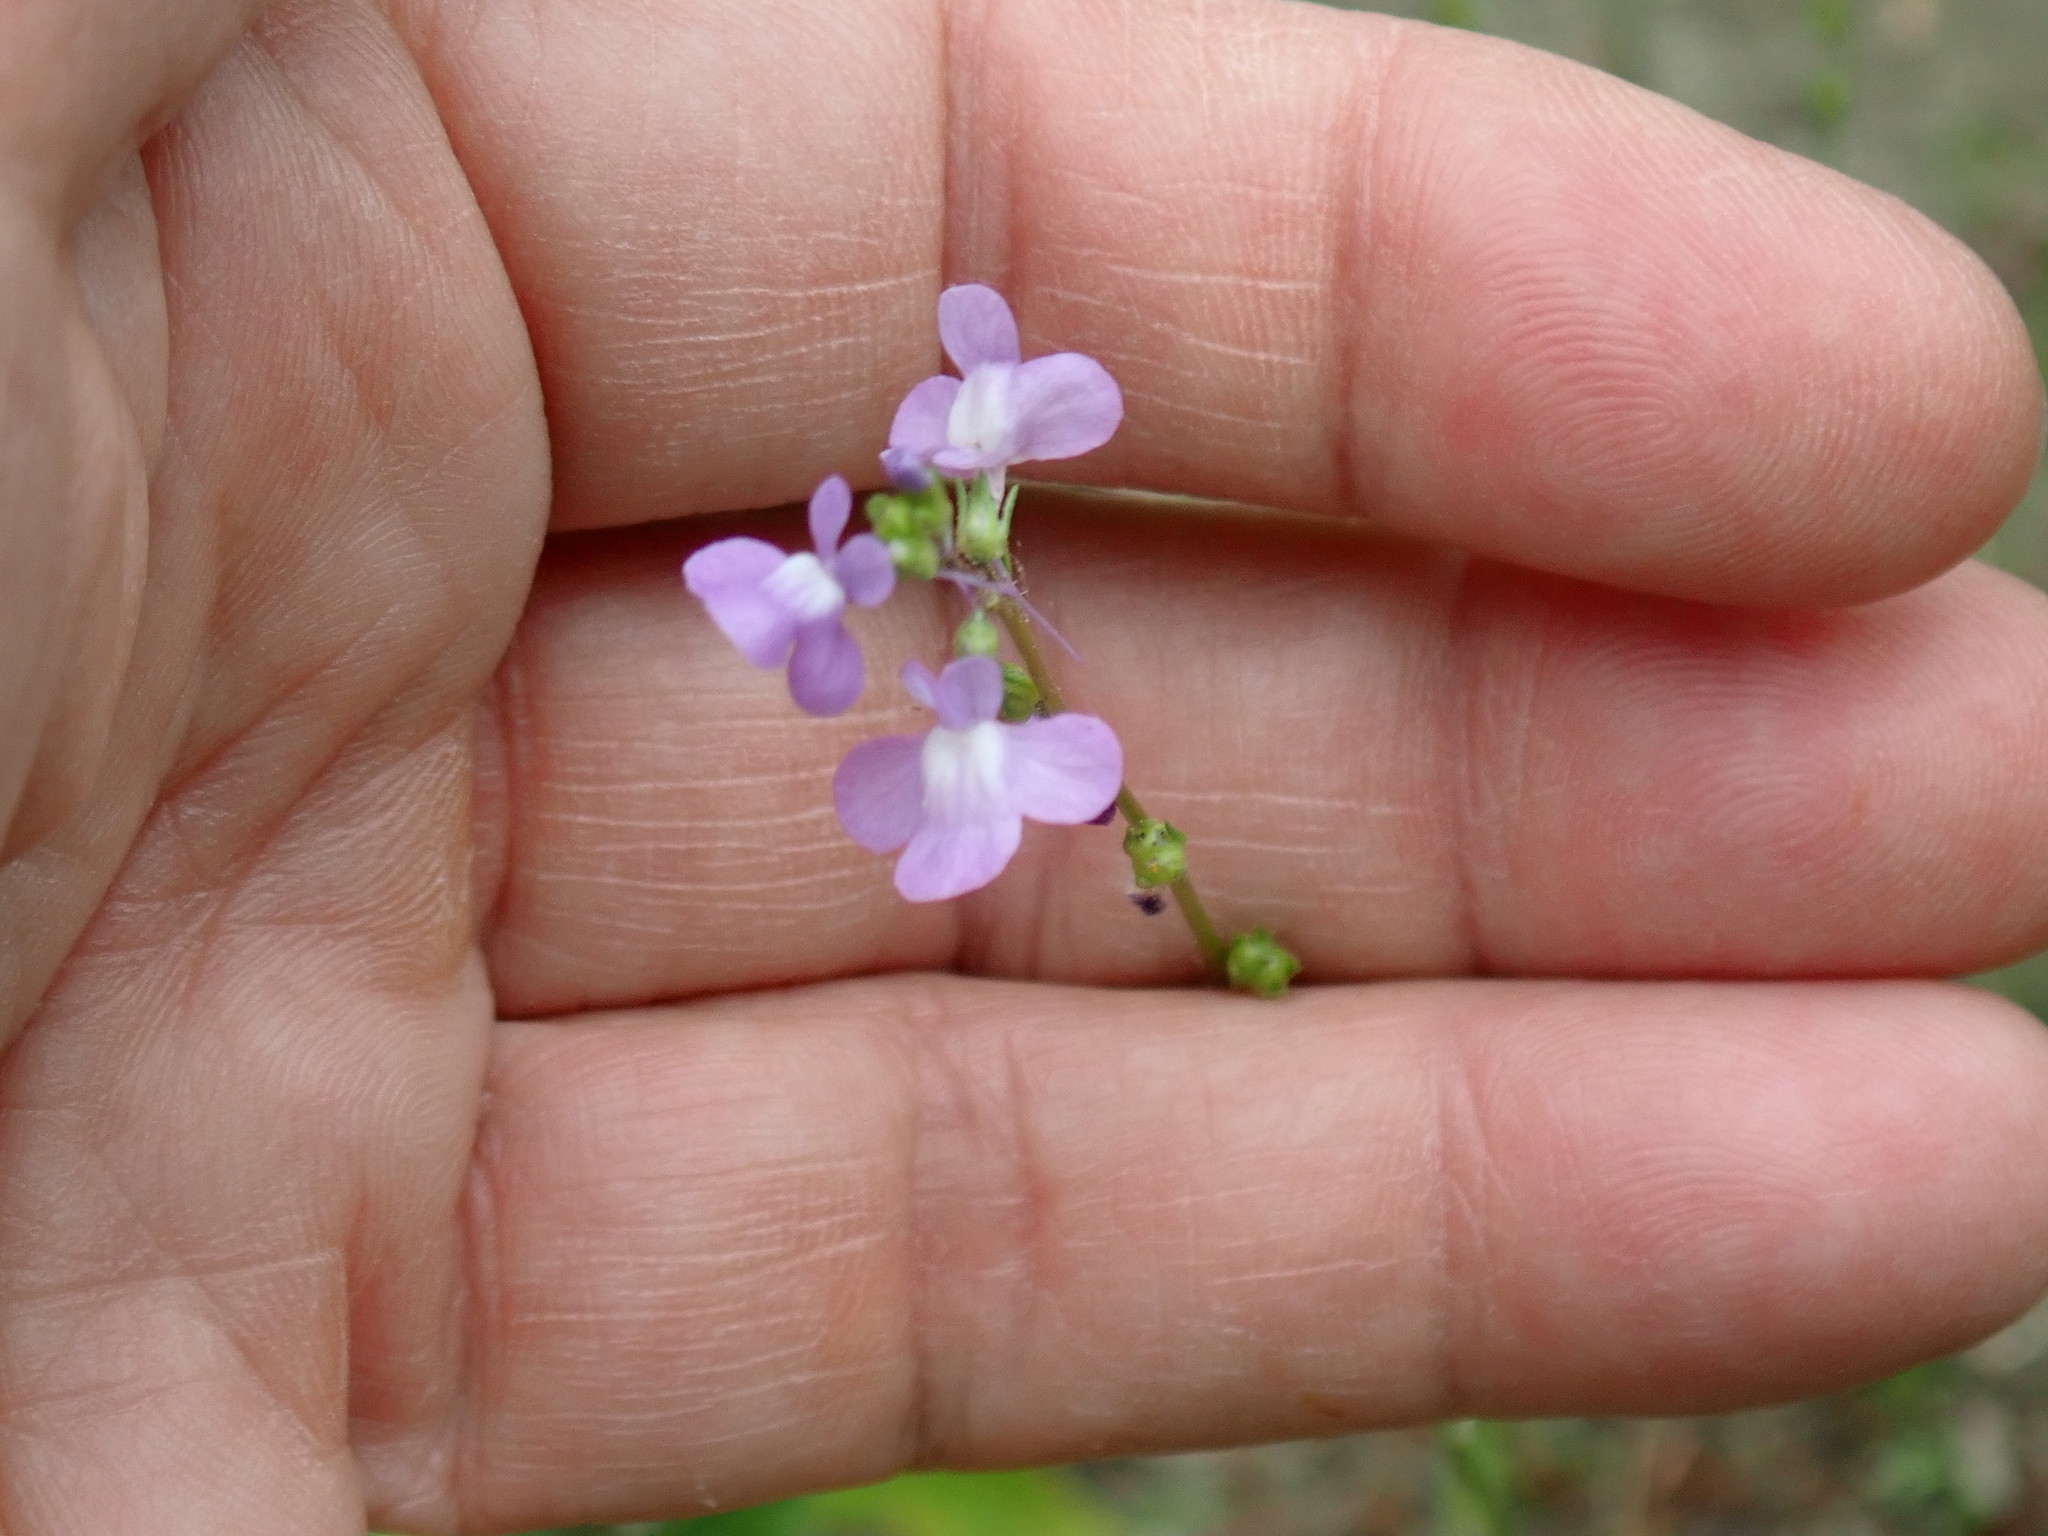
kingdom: Plantae
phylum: Tracheophyta
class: Magnoliopsida
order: Lamiales
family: Plantaginaceae
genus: Nuttallanthus
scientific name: Nuttallanthus canadensis
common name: Blue toadflax
